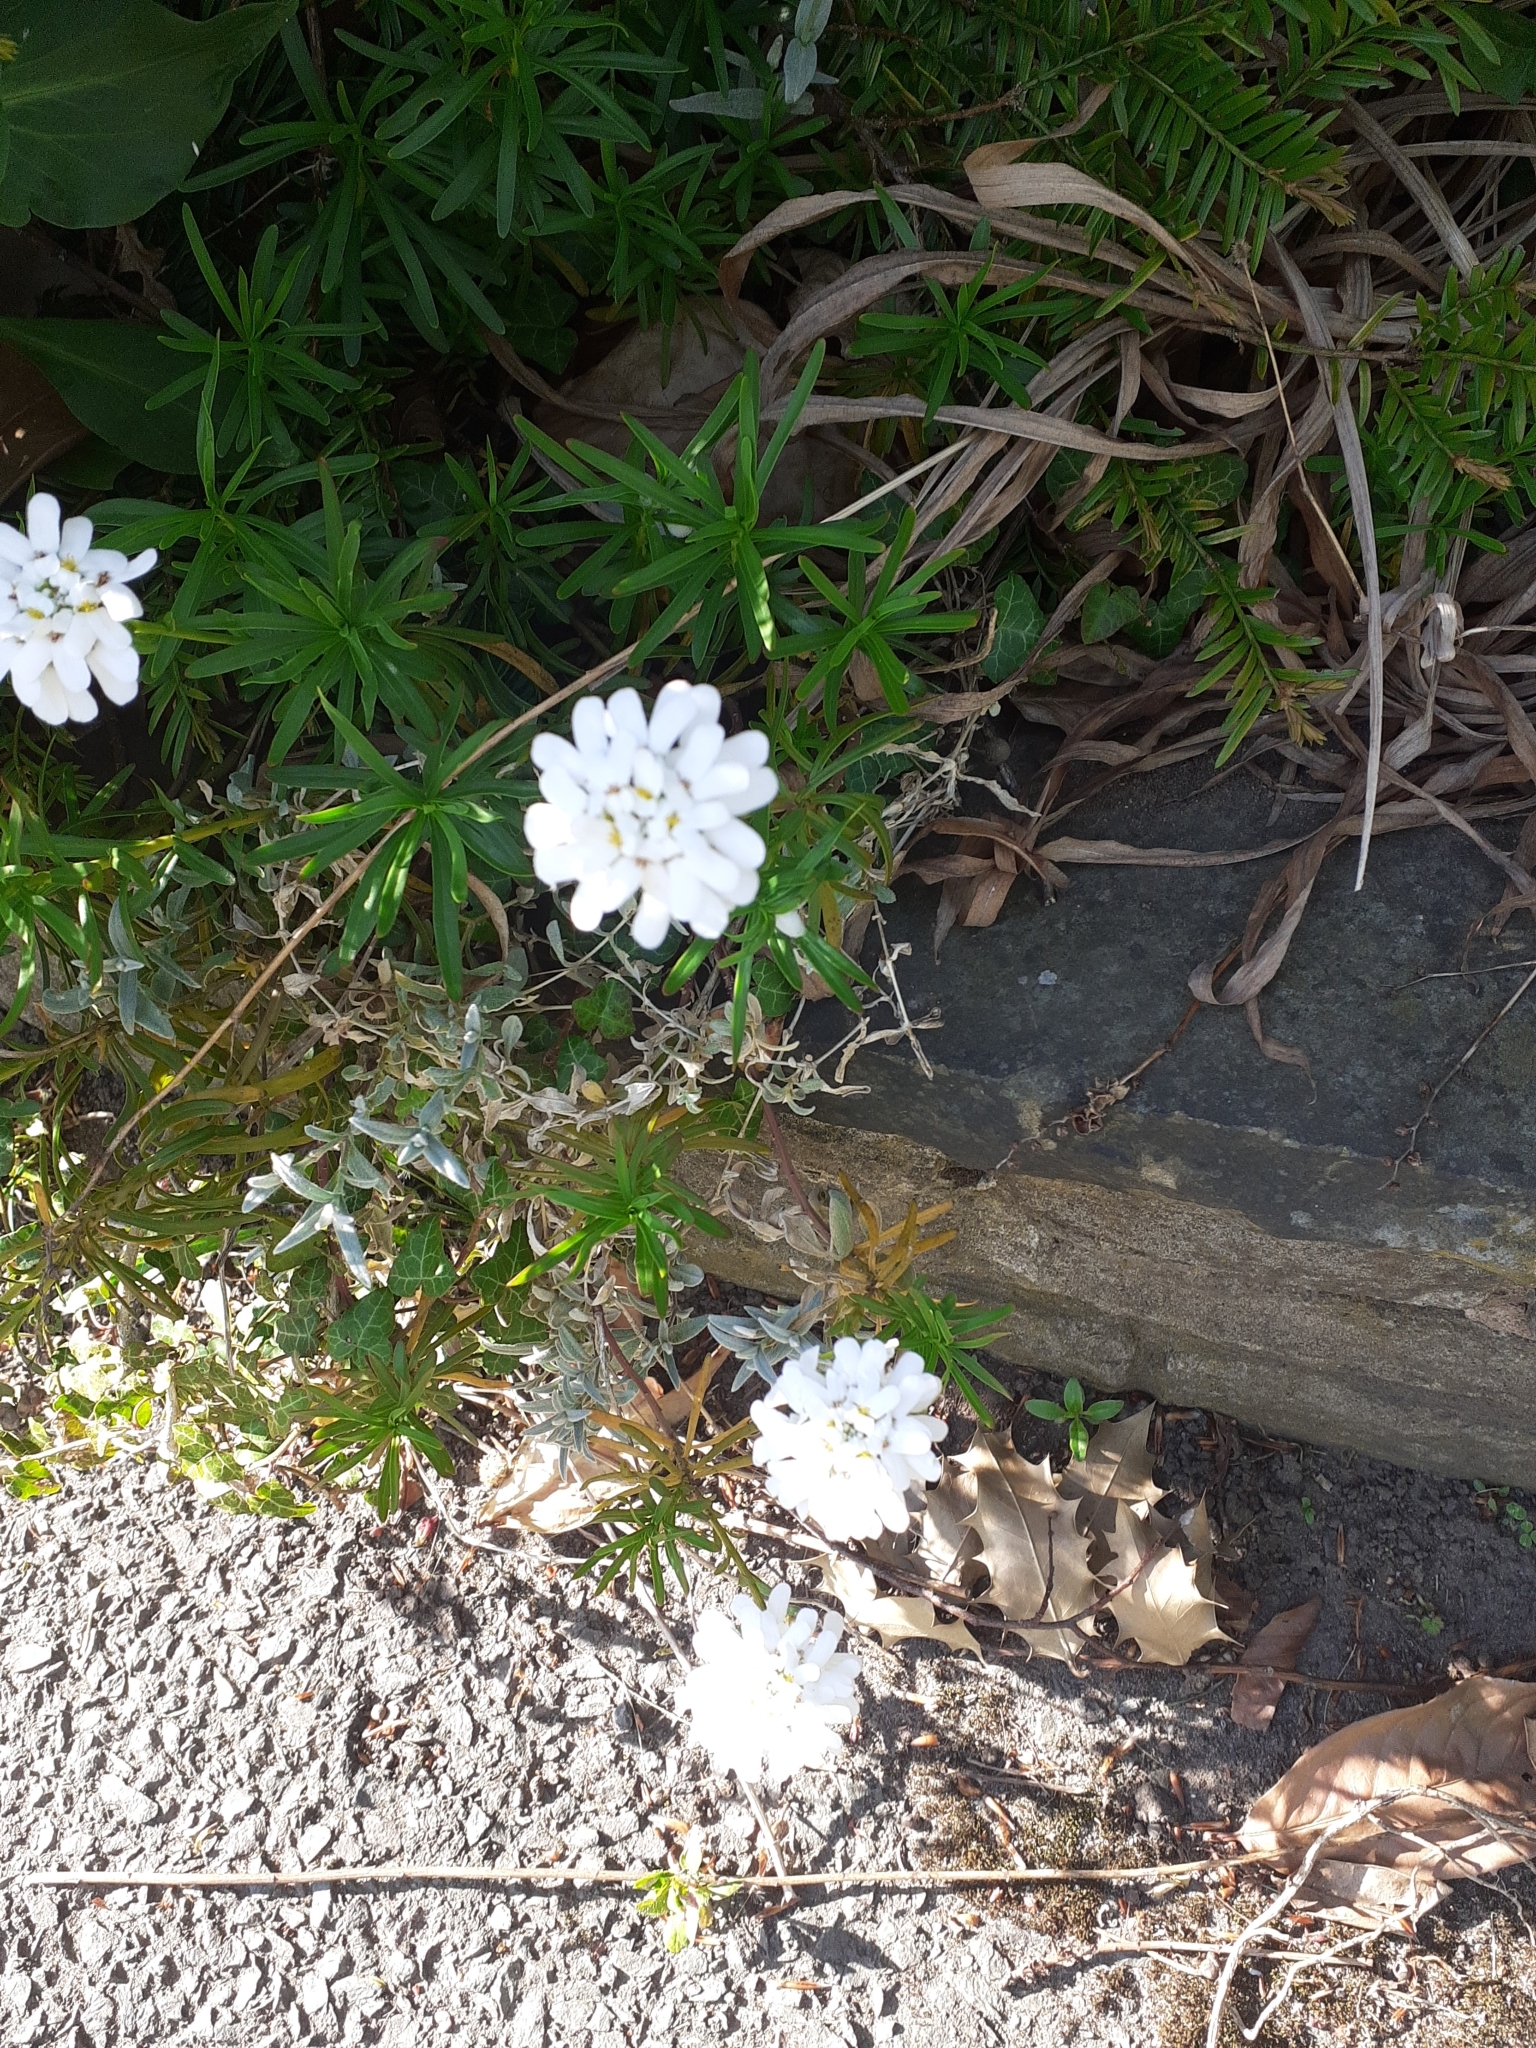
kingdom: Plantae
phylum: Tracheophyta
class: Magnoliopsida
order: Brassicales
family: Brassicaceae
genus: Iberis
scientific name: Iberis sempervirens
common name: Evergreen candytuft
